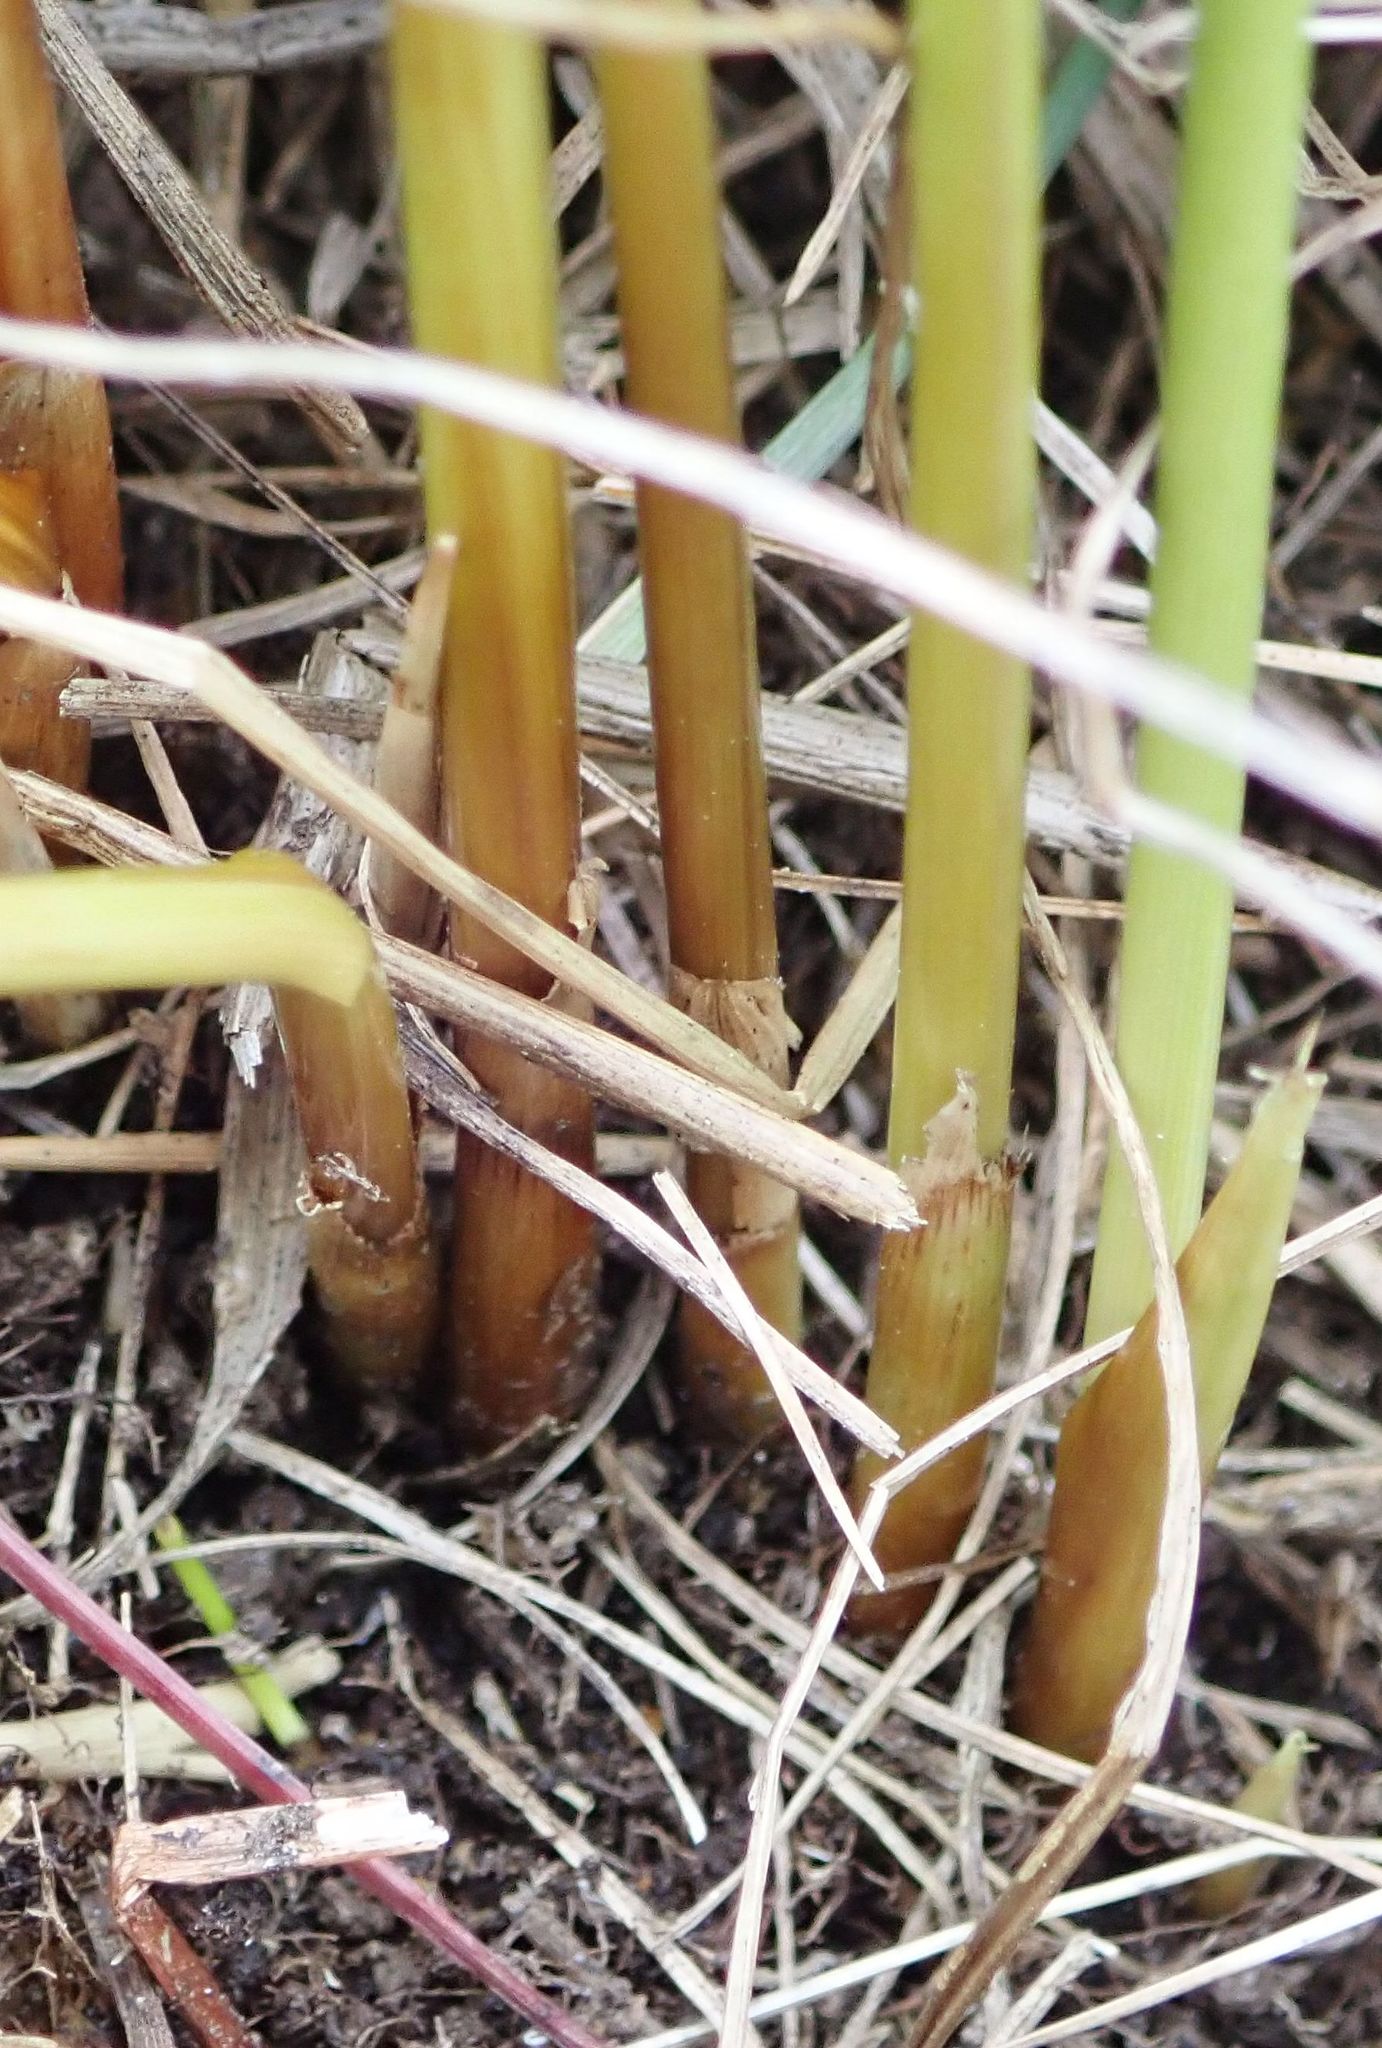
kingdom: Plantae
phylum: Tracheophyta
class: Liliopsida
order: Poales
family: Juncaceae
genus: Juncus
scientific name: Juncus australis
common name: Austral rush
